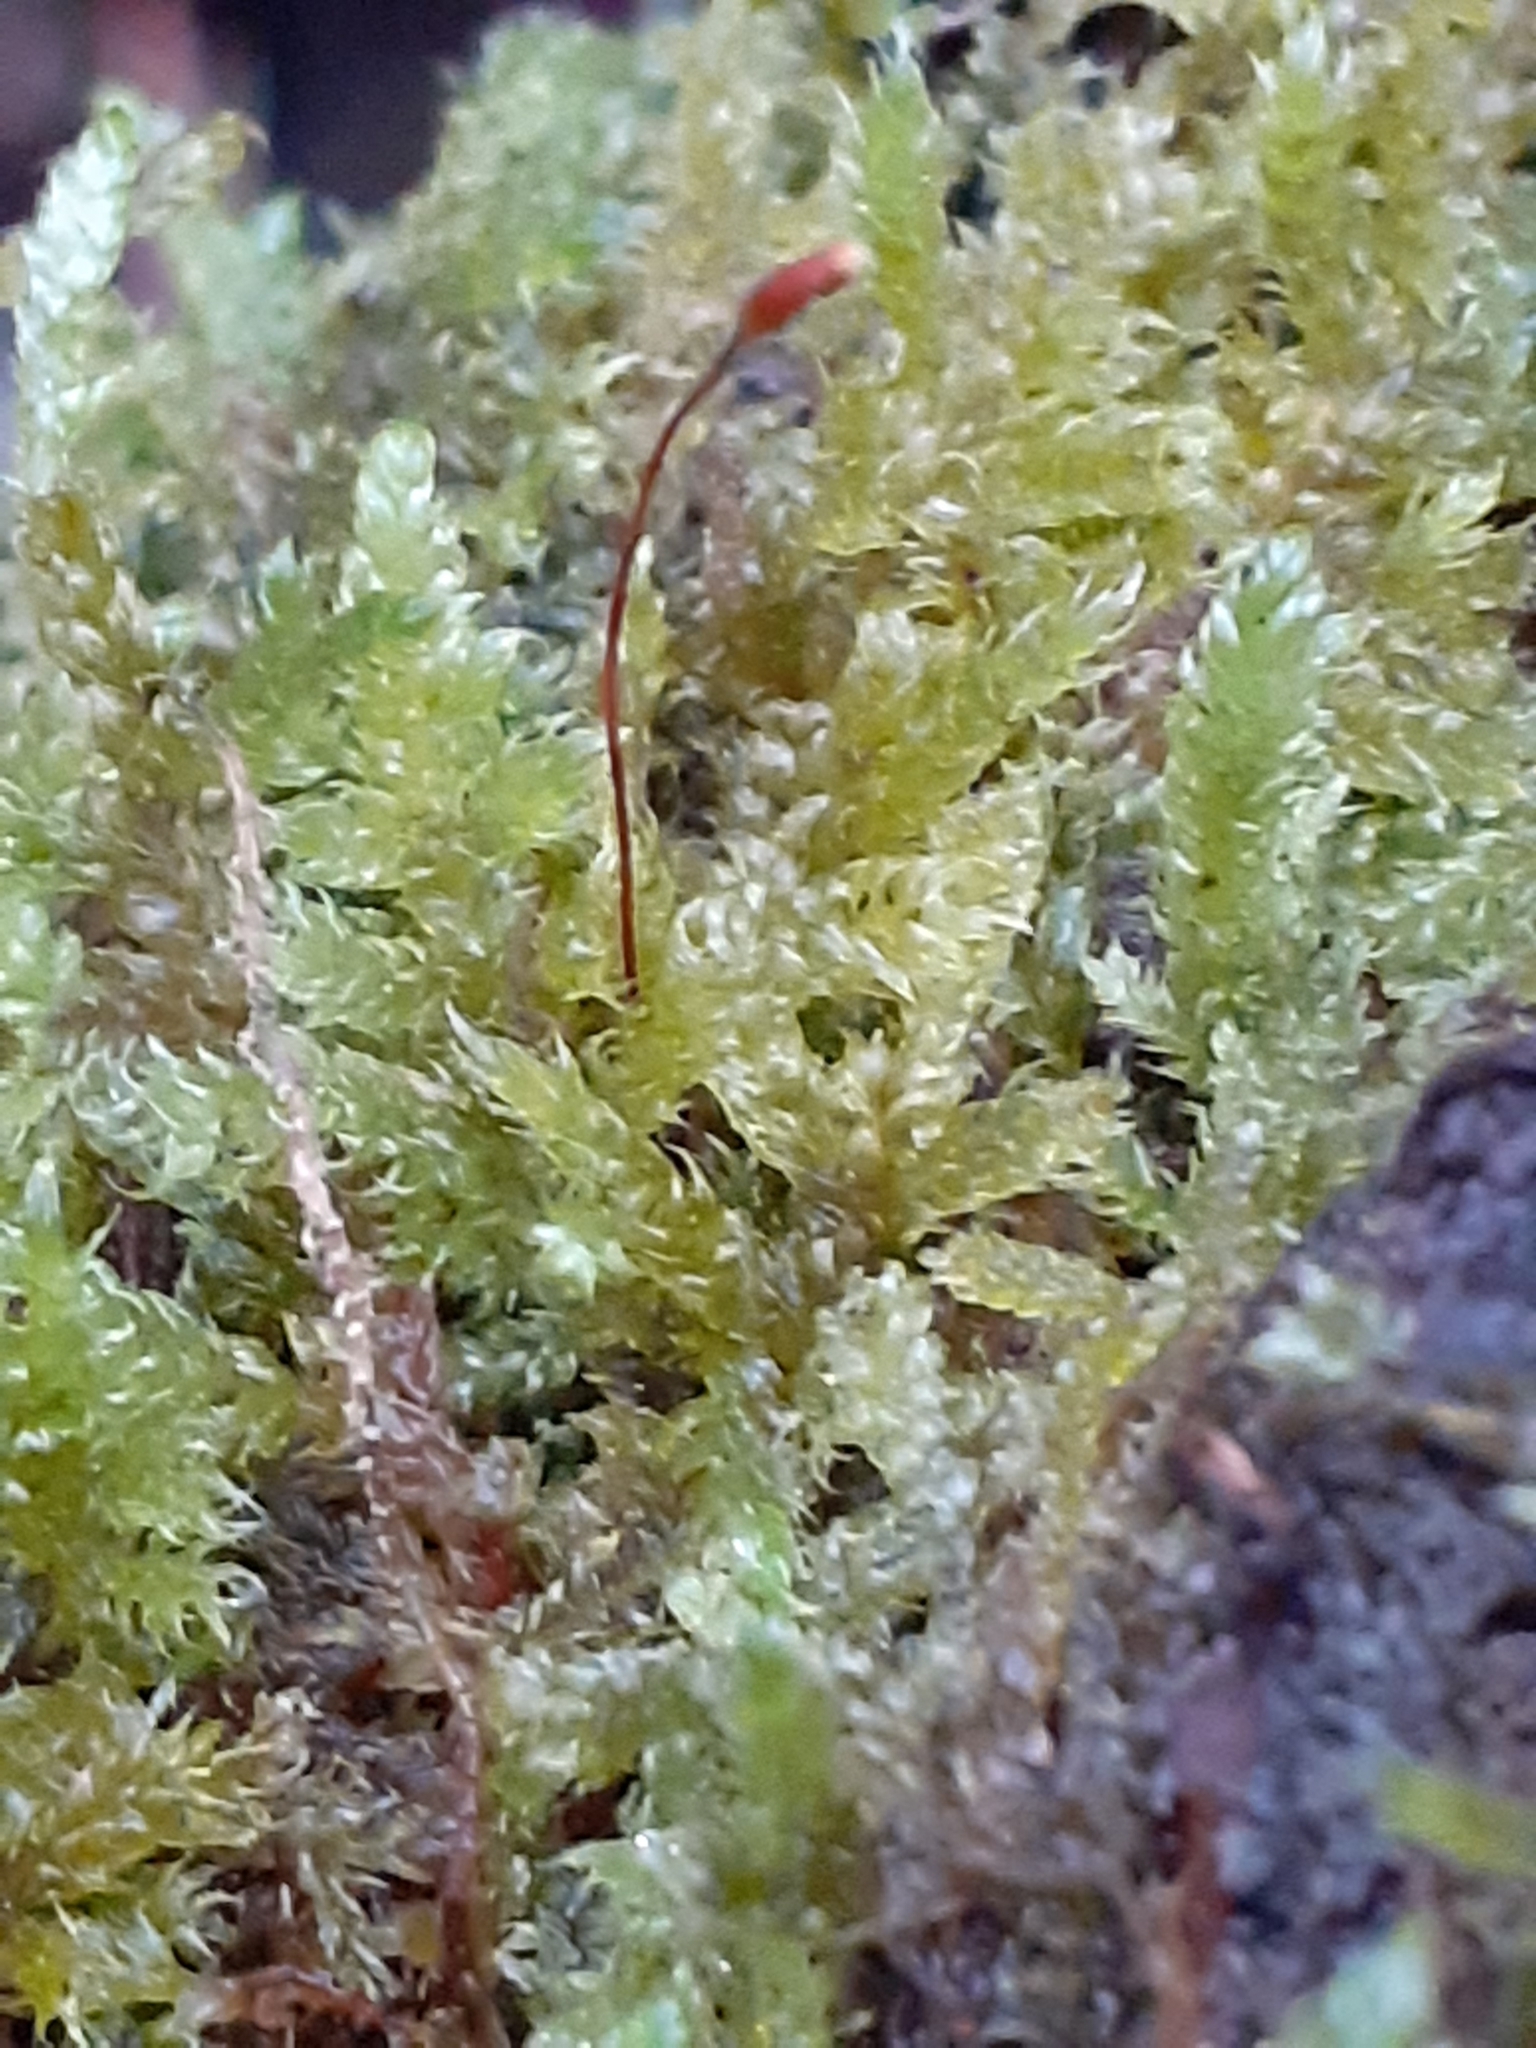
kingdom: Plantae
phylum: Bryophyta
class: Bryopsida
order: Hypnales
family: Hypnaceae
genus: Hypnum
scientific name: Hypnum cupressiforme
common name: Cypress-leaved plait-moss
